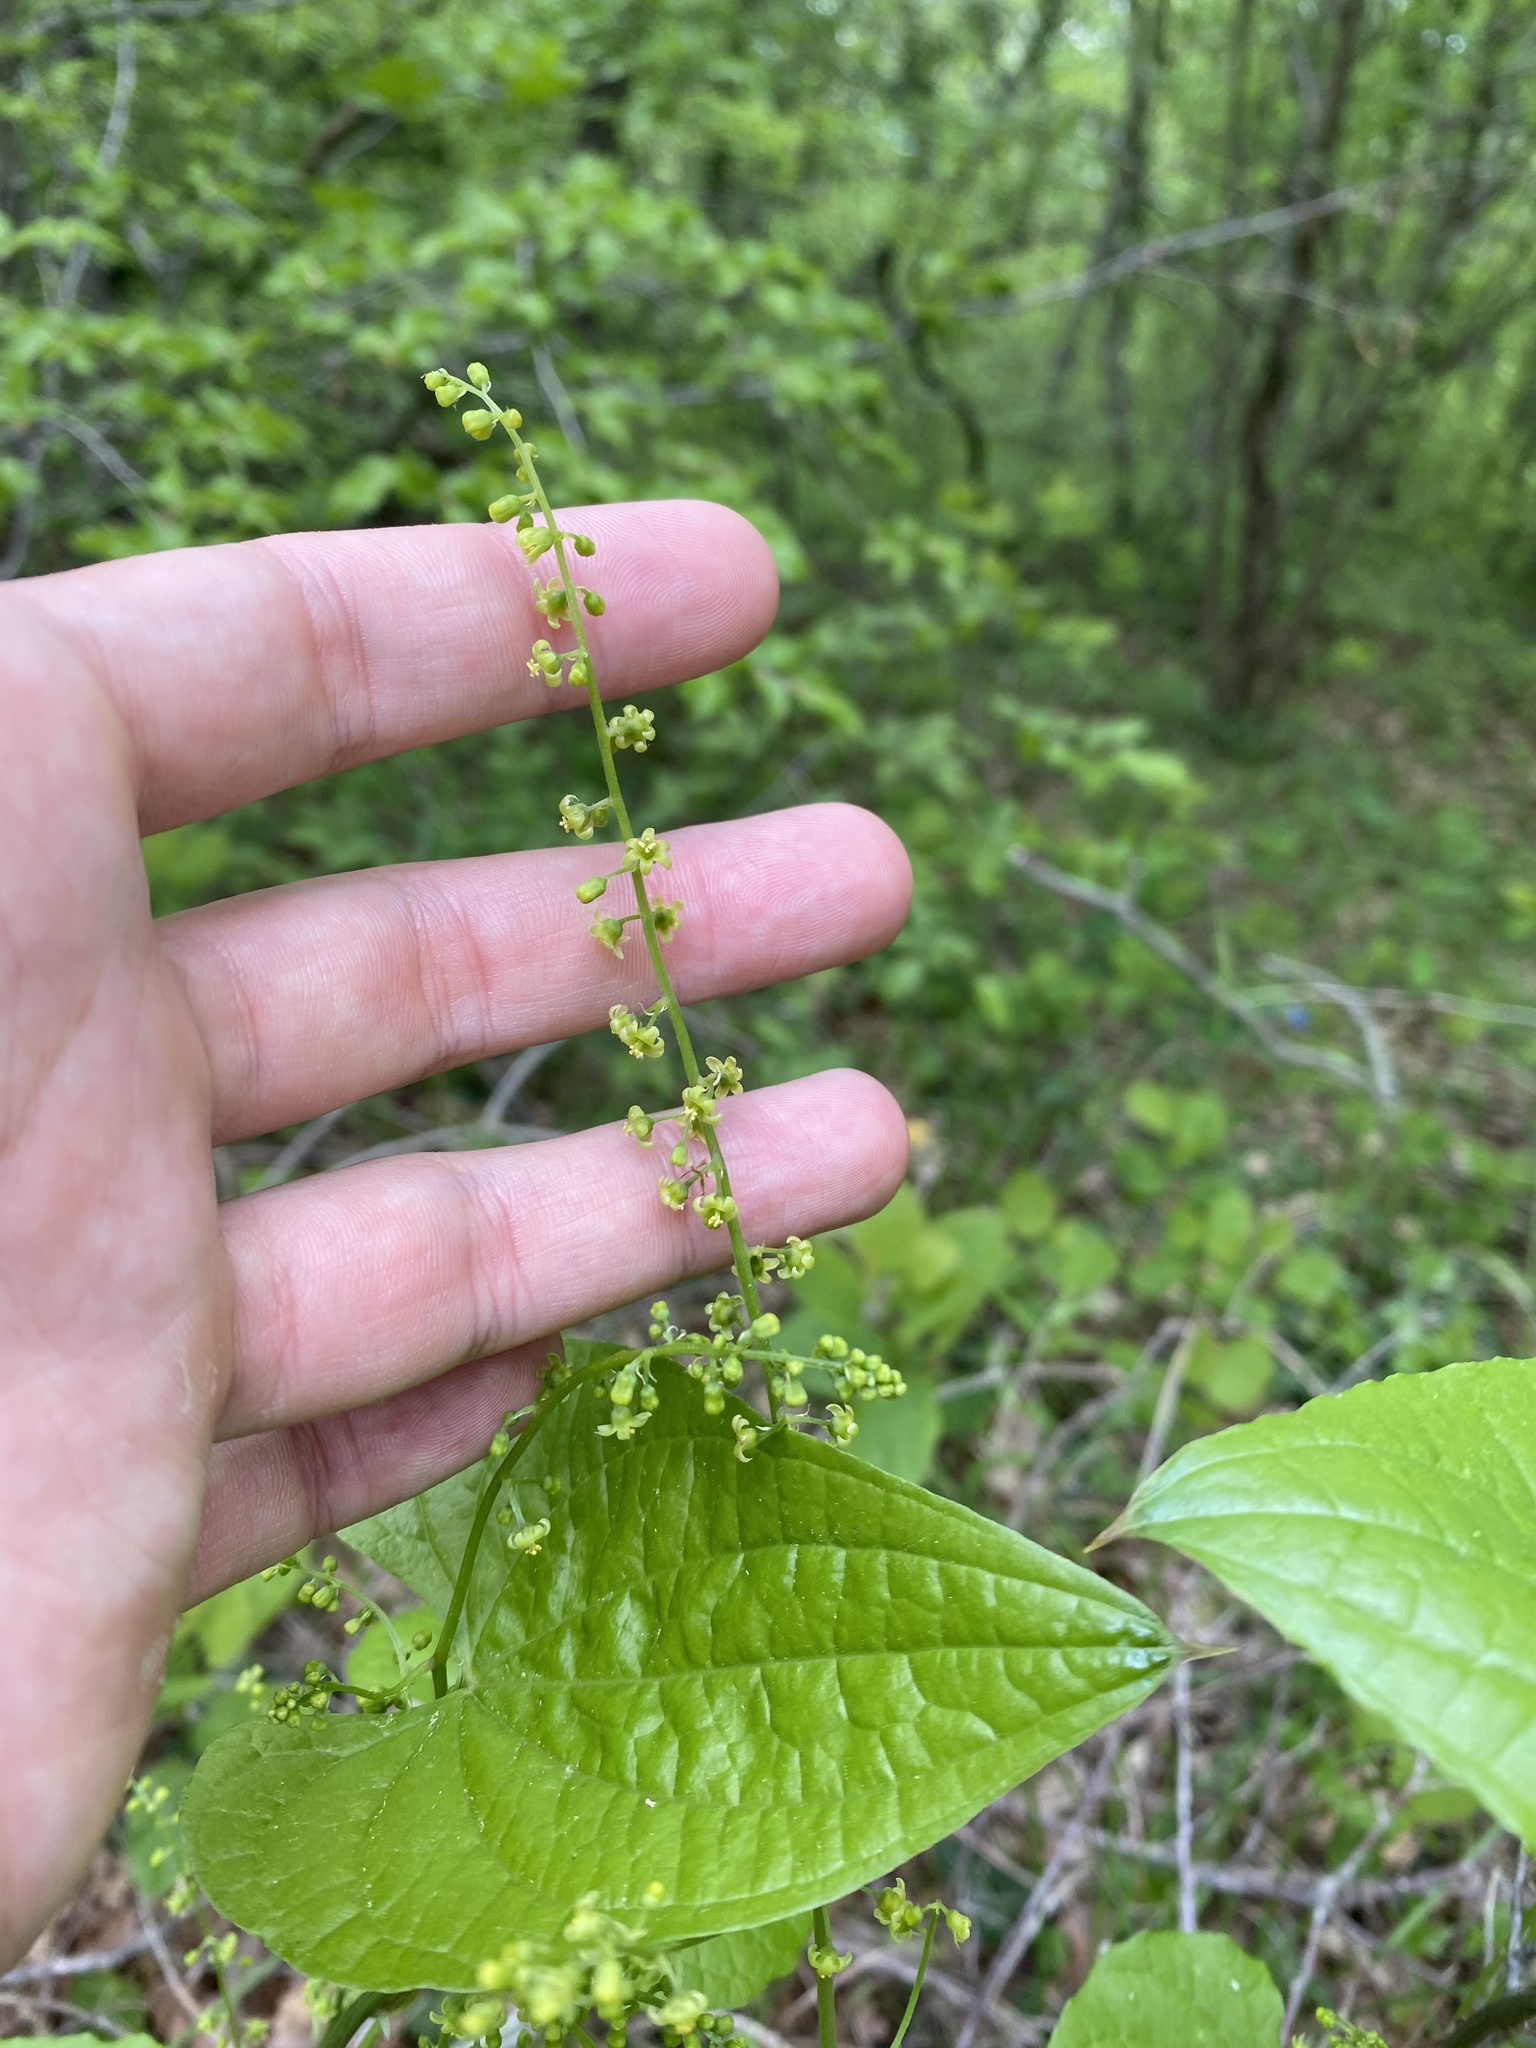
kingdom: Plantae
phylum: Tracheophyta
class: Liliopsida
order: Dioscoreales
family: Dioscoreaceae
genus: Dioscorea
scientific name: Dioscorea communis
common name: Black-bindweed
